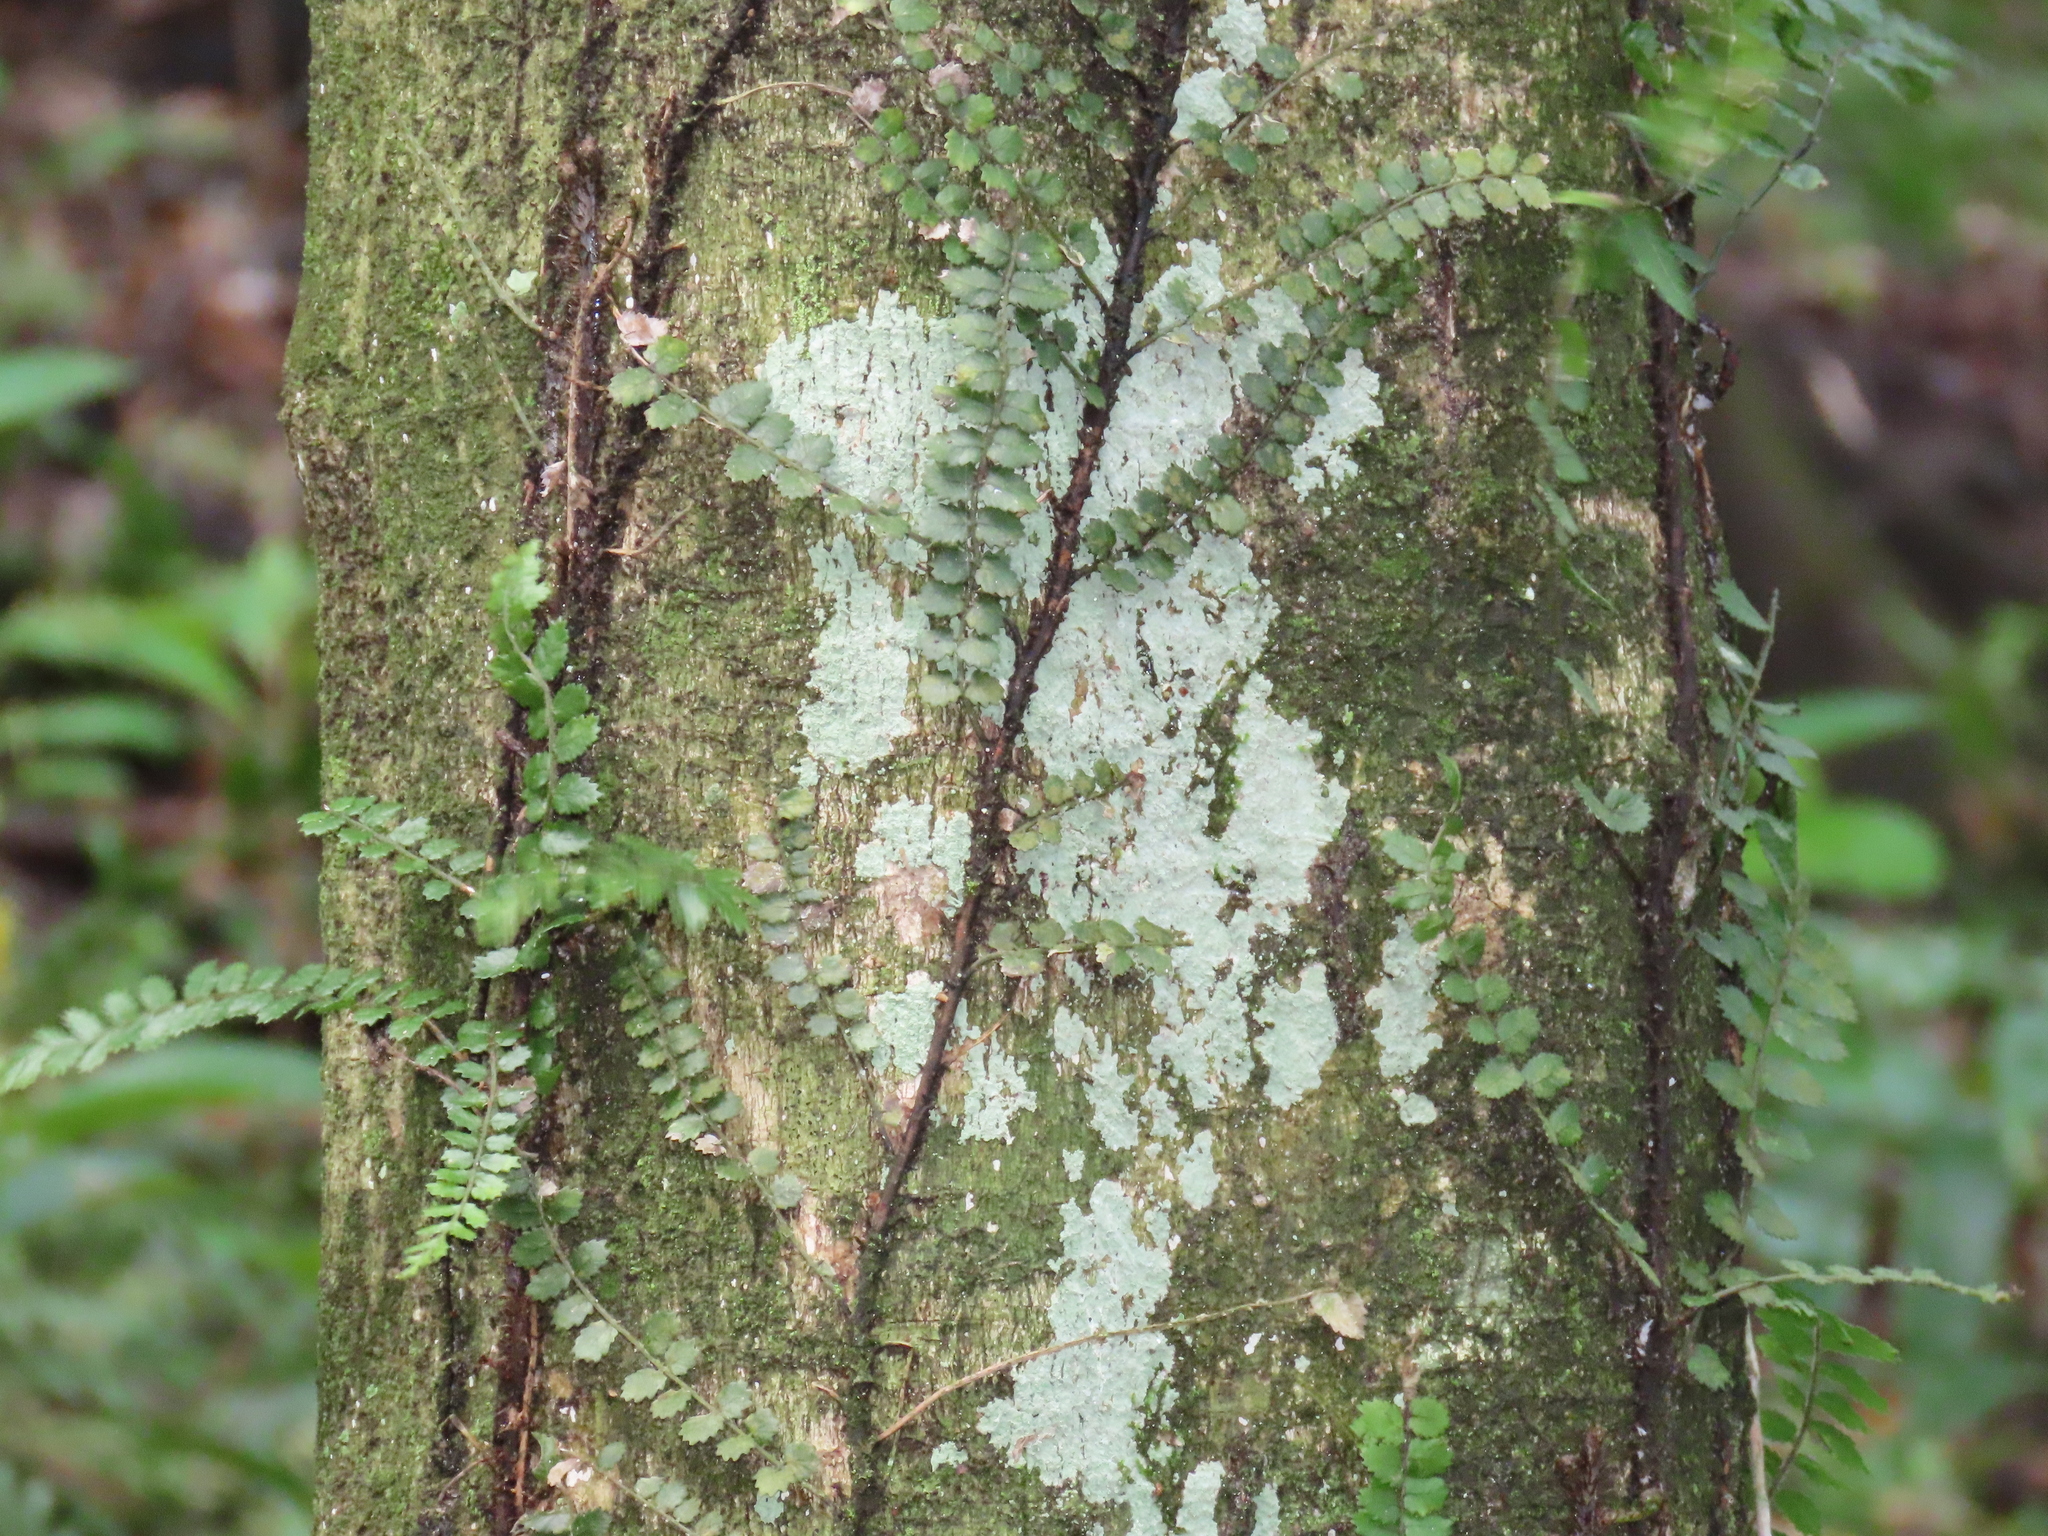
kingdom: Plantae
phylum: Tracheophyta
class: Polypodiopsida
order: Polypodiales
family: Blechnaceae
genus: Icarus
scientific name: Icarus filiformis
